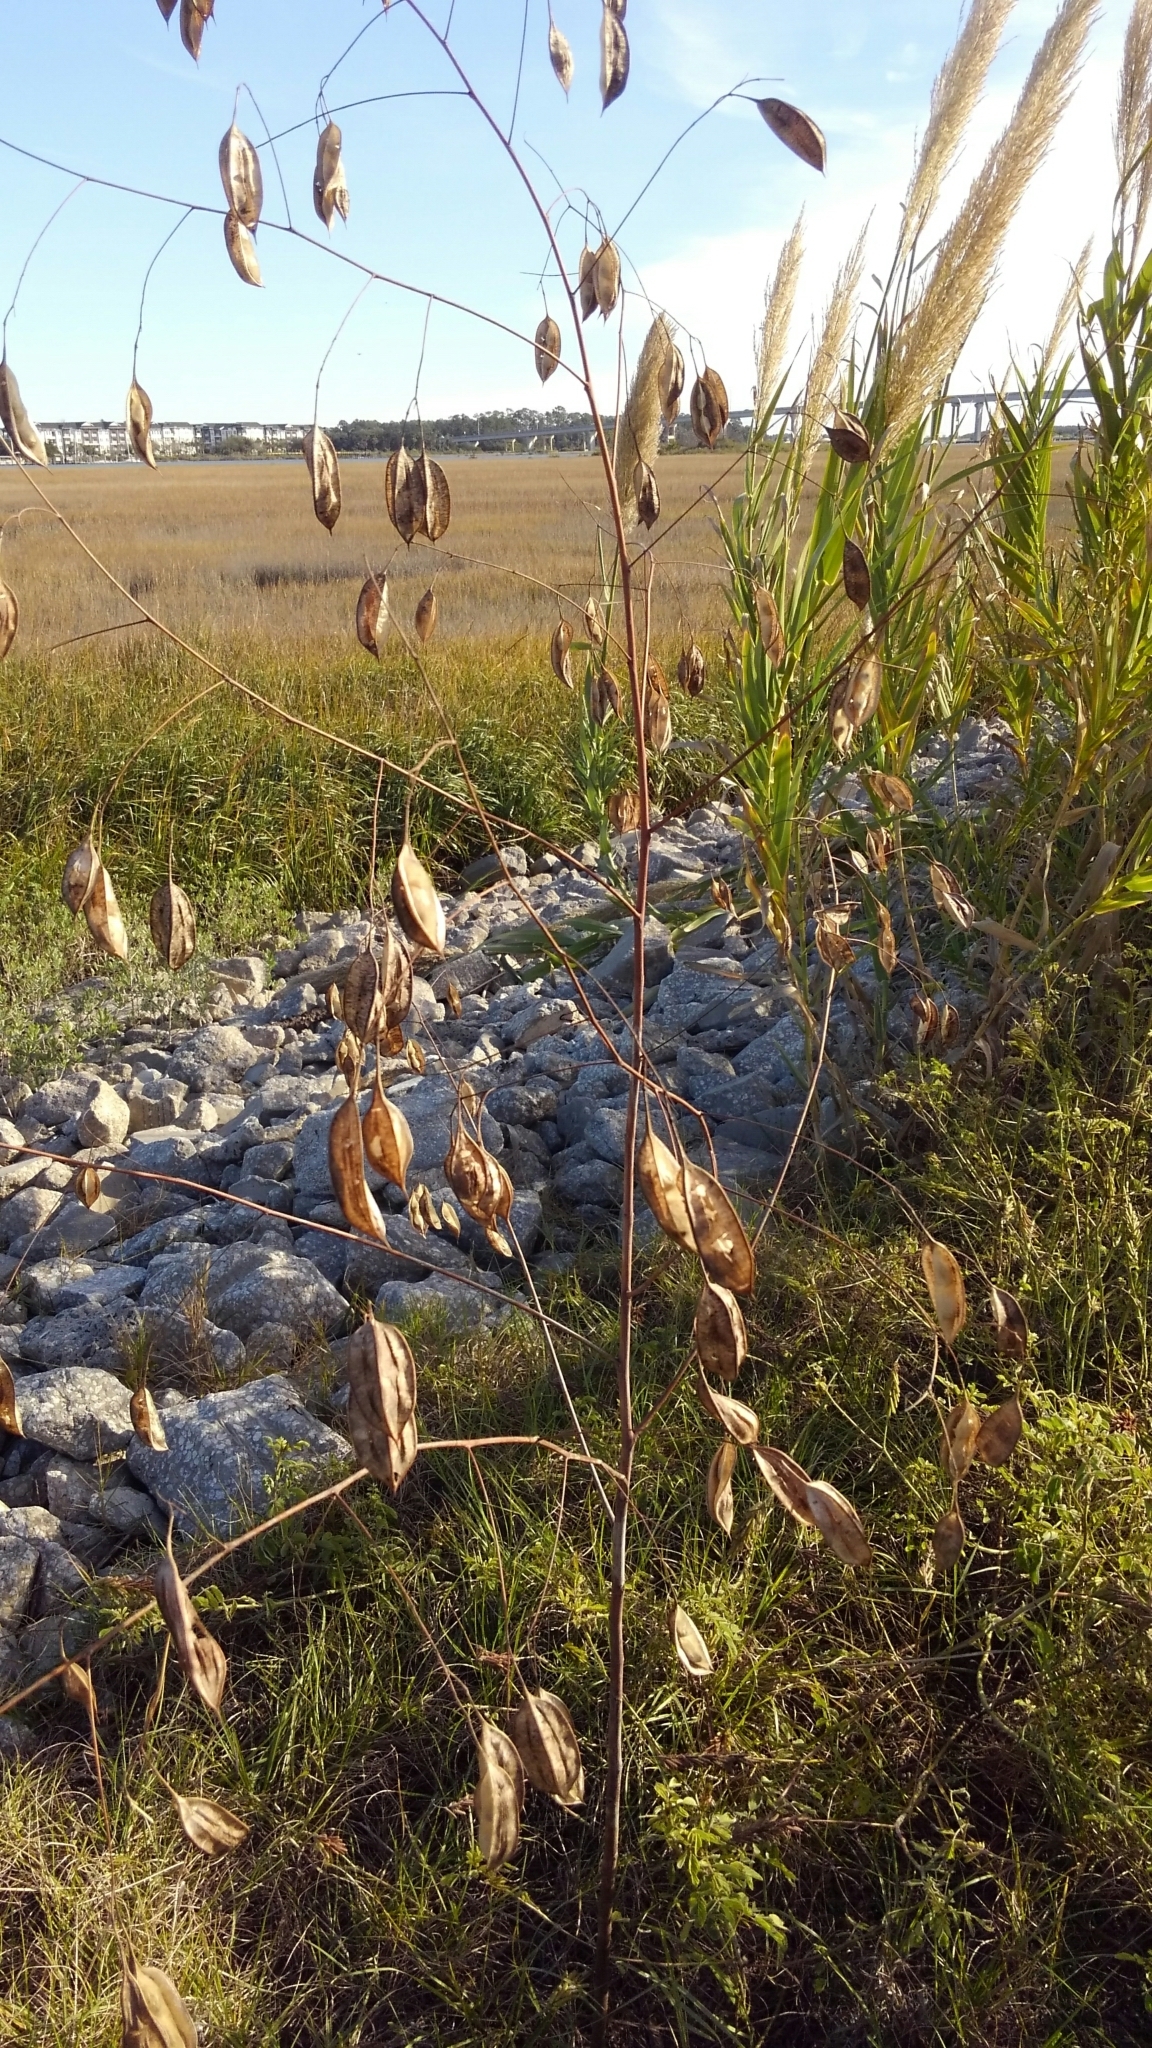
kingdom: Plantae
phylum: Tracheophyta
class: Magnoliopsida
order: Fabales
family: Fabaceae
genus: Sesbania
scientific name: Sesbania vesicaria
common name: Bagpod
